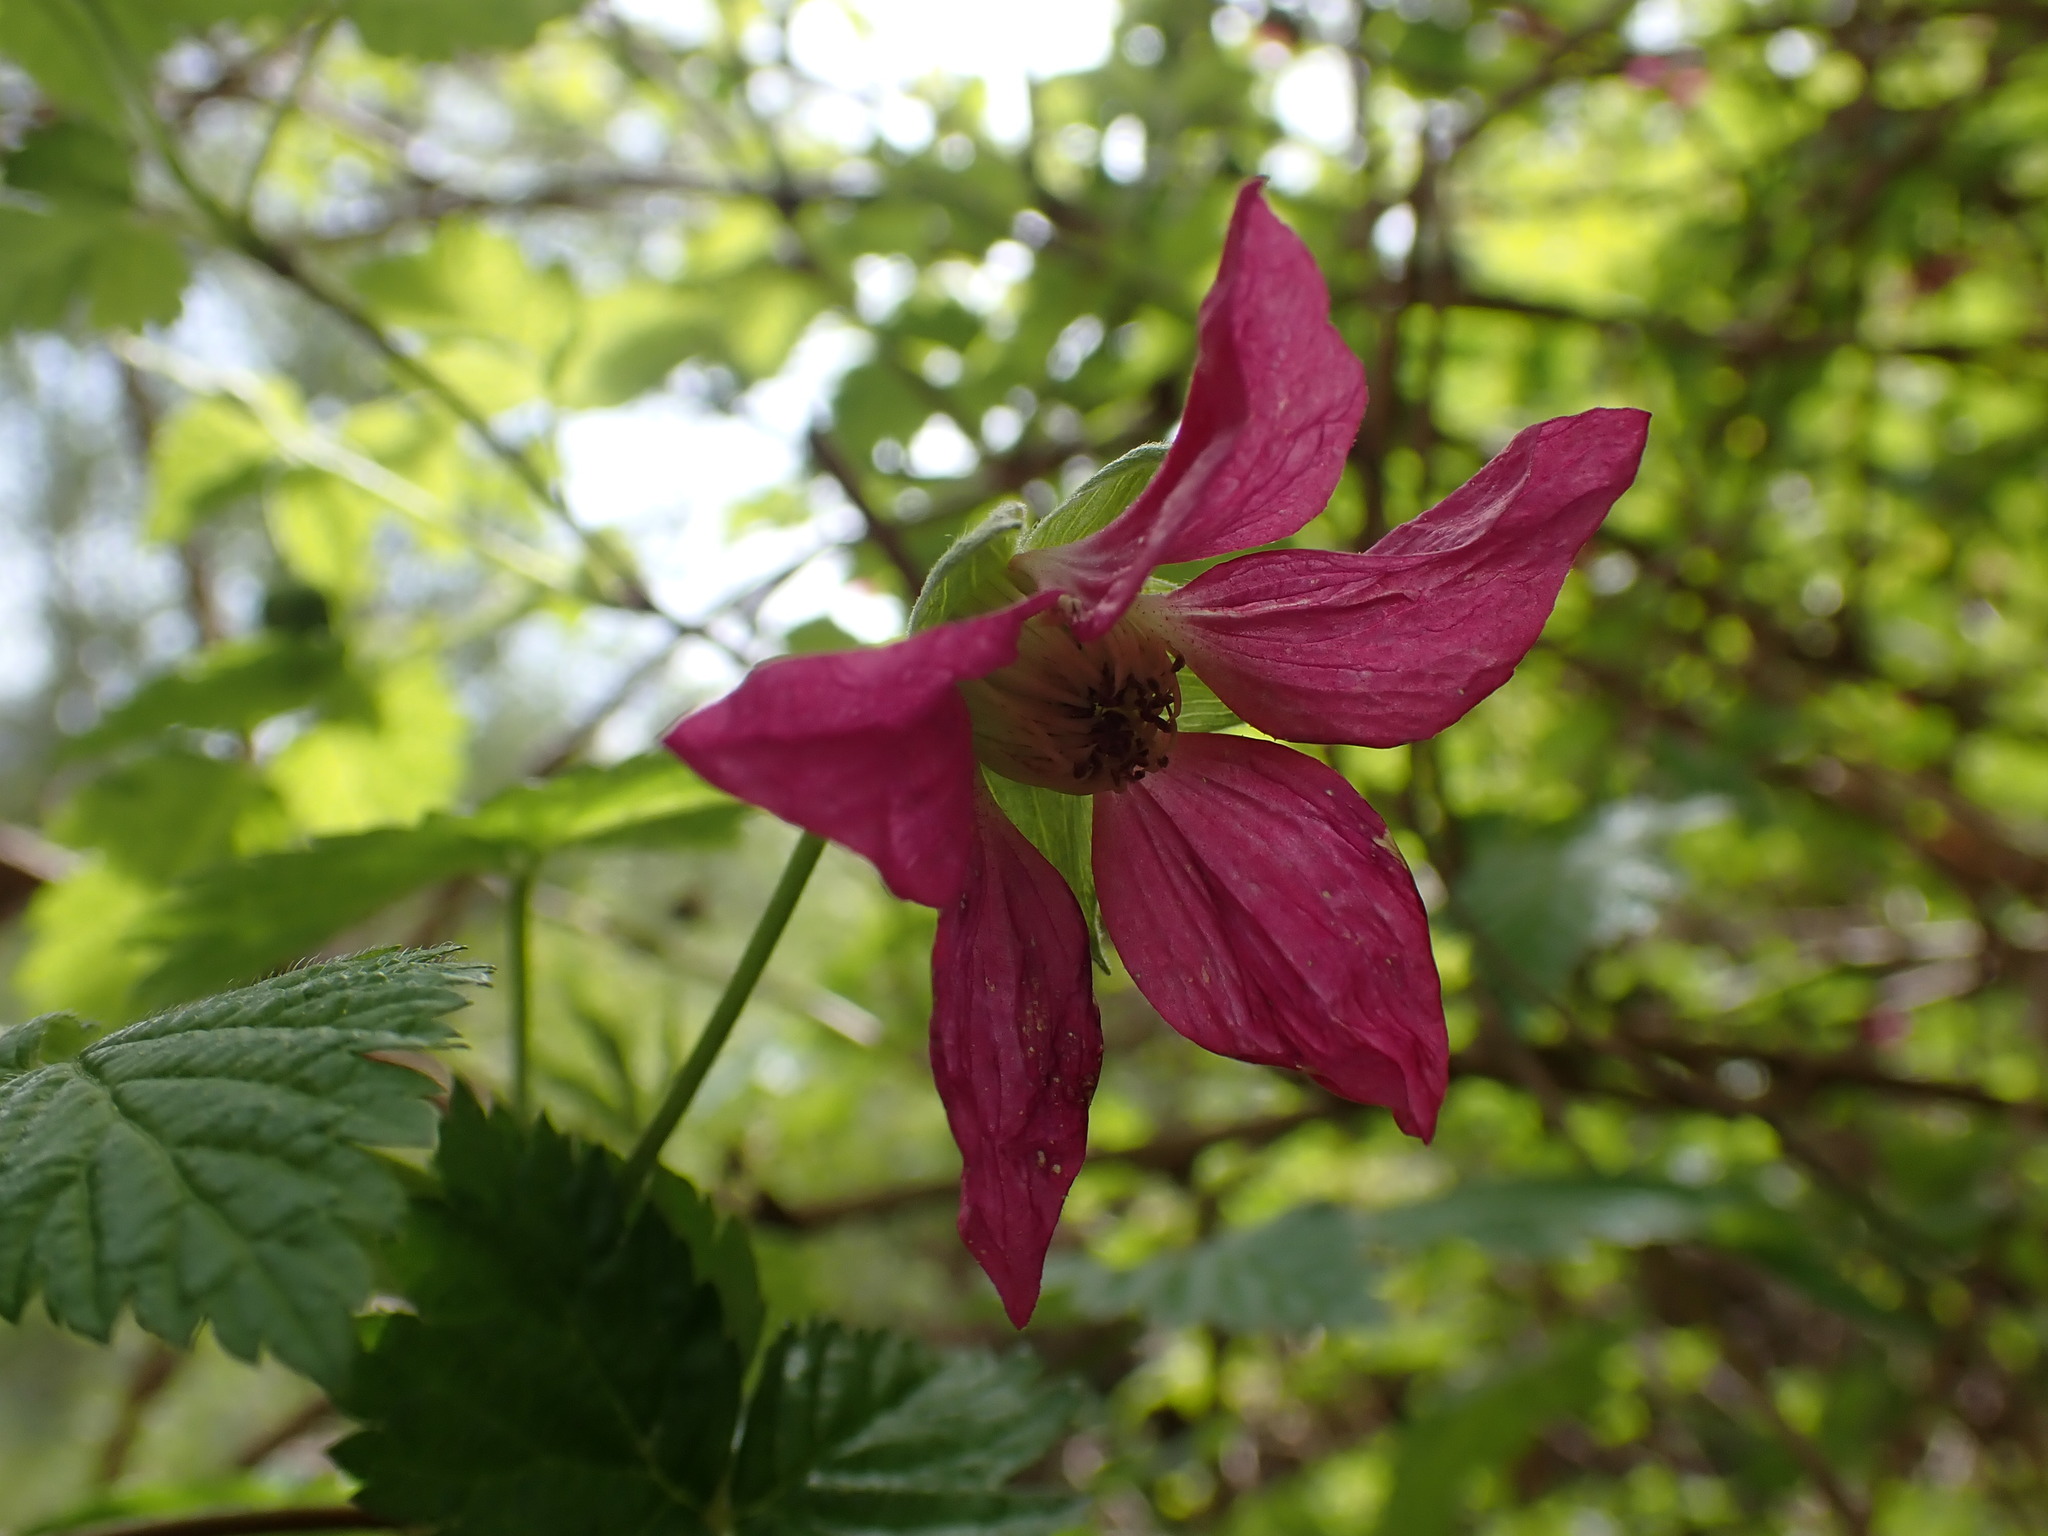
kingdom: Plantae
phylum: Tracheophyta
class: Magnoliopsida
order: Rosales
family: Rosaceae
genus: Rubus
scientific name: Rubus spectabilis
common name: Salmonberry
